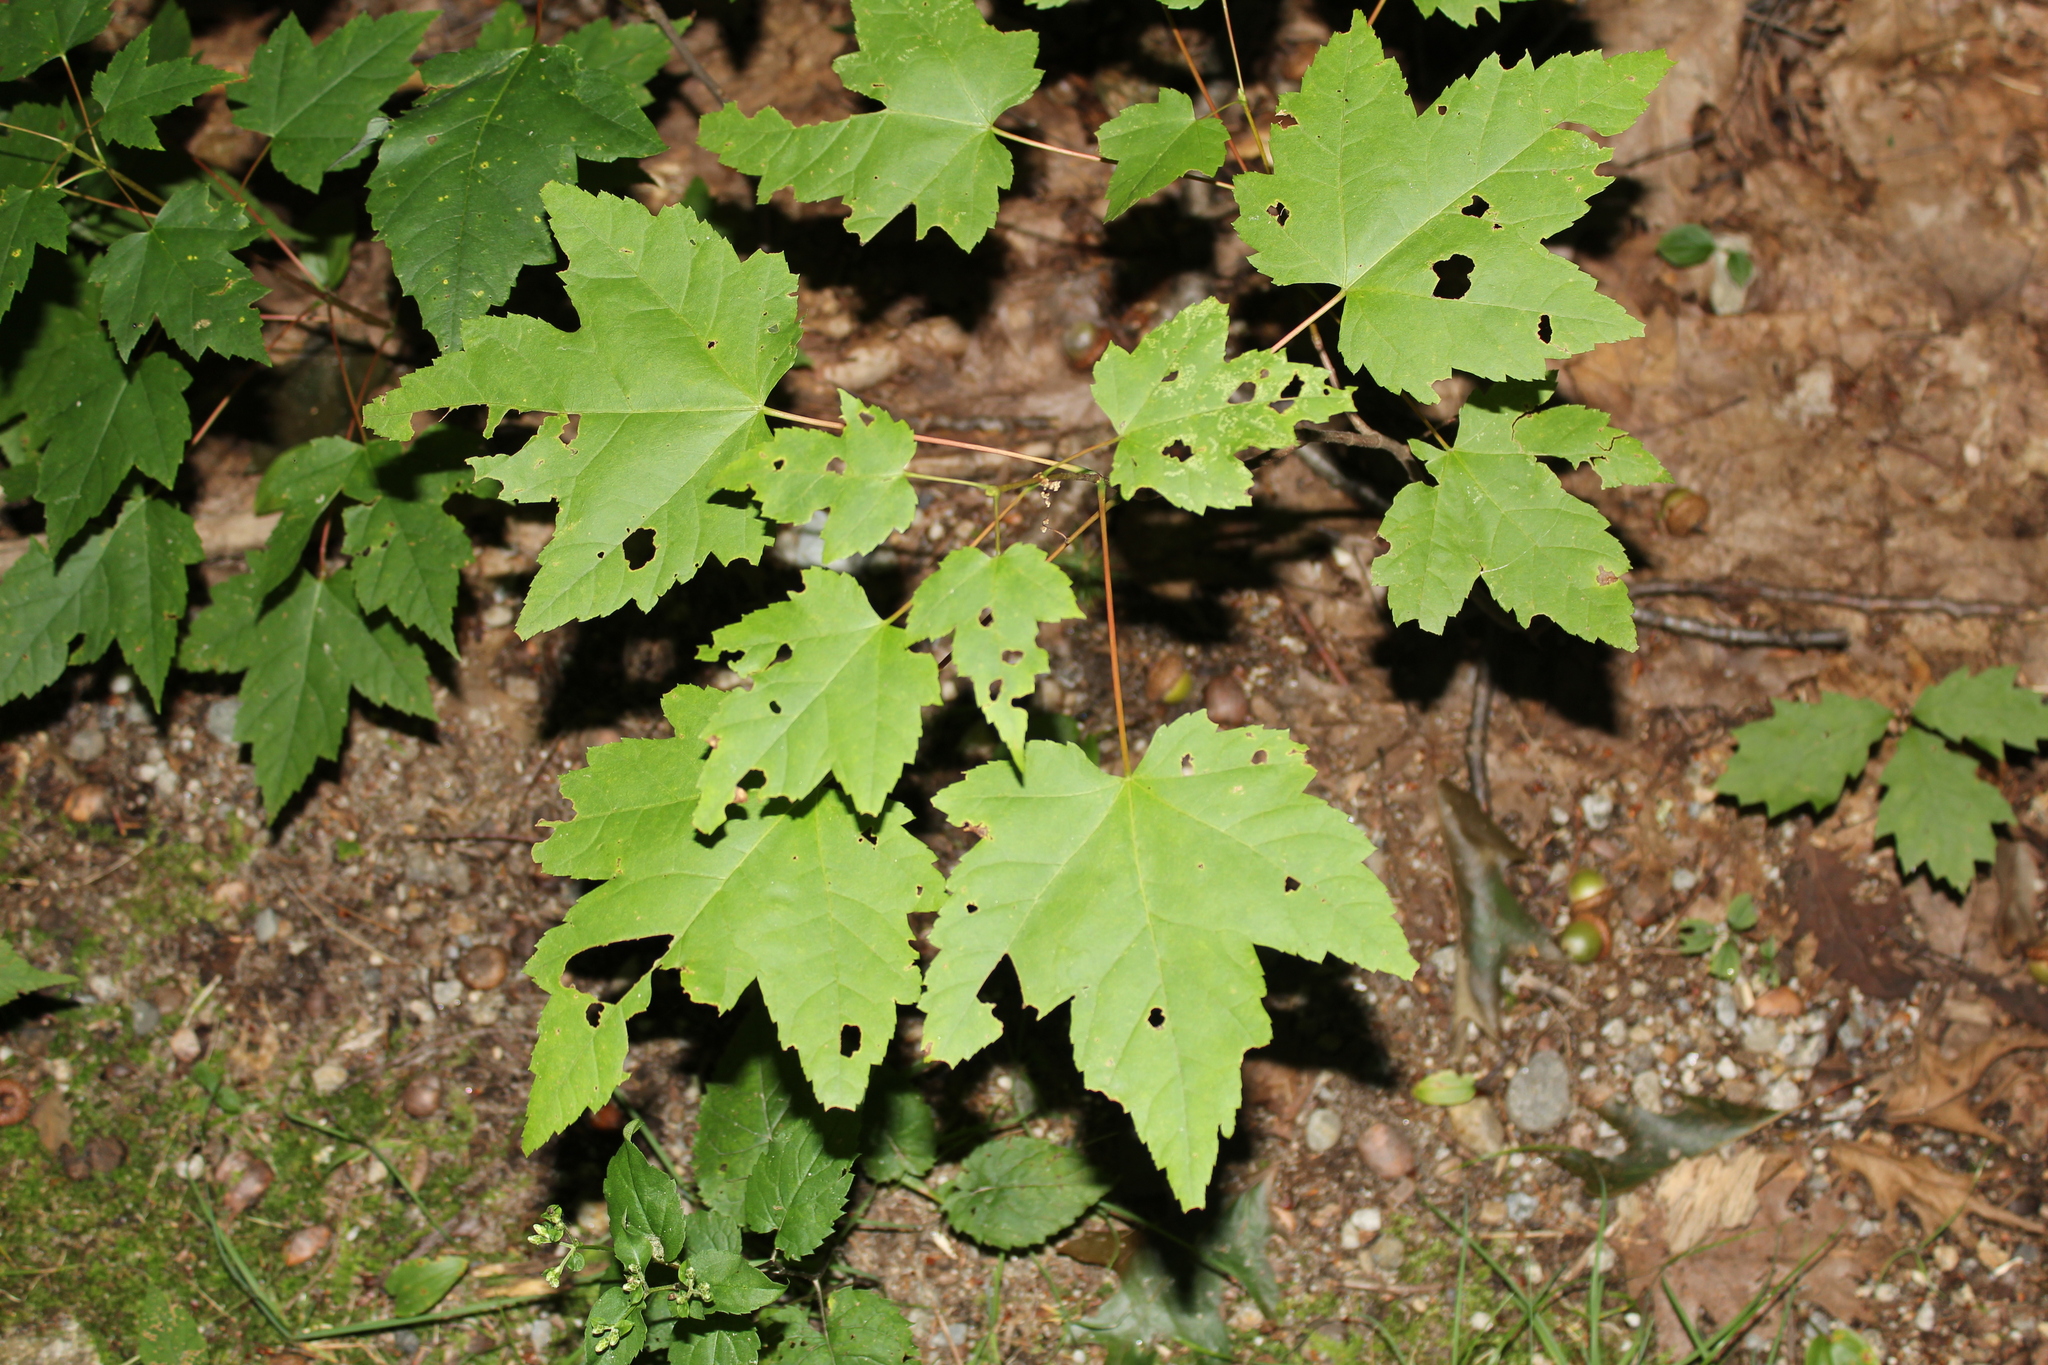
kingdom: Plantae
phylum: Tracheophyta
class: Magnoliopsida
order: Sapindales
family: Sapindaceae
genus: Acer
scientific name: Acer rubrum
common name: Red maple
